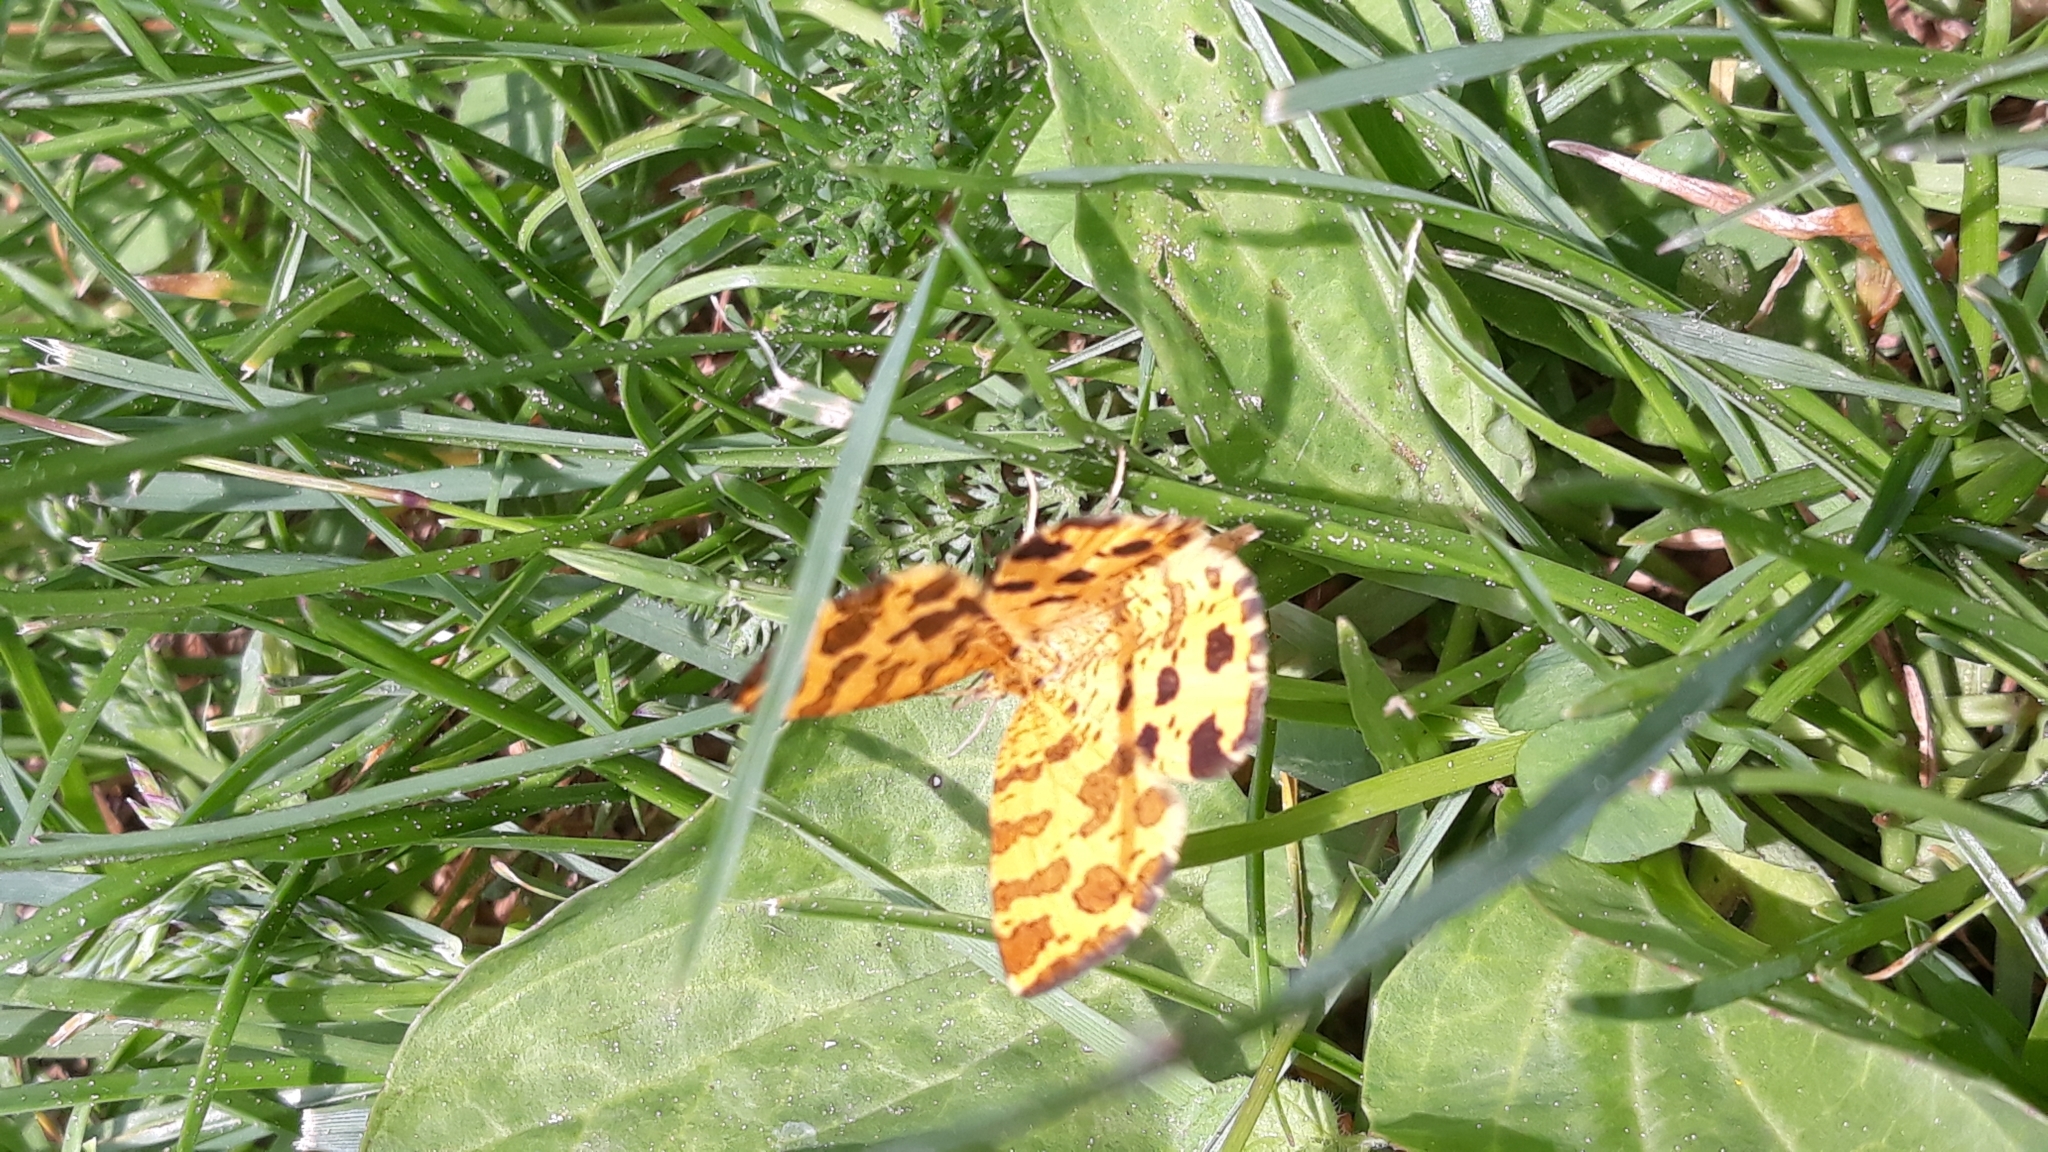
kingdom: Animalia
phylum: Arthropoda
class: Insecta
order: Lepidoptera
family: Geometridae
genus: Pseudopanthera
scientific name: Pseudopanthera macularia
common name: Speckled yellow
